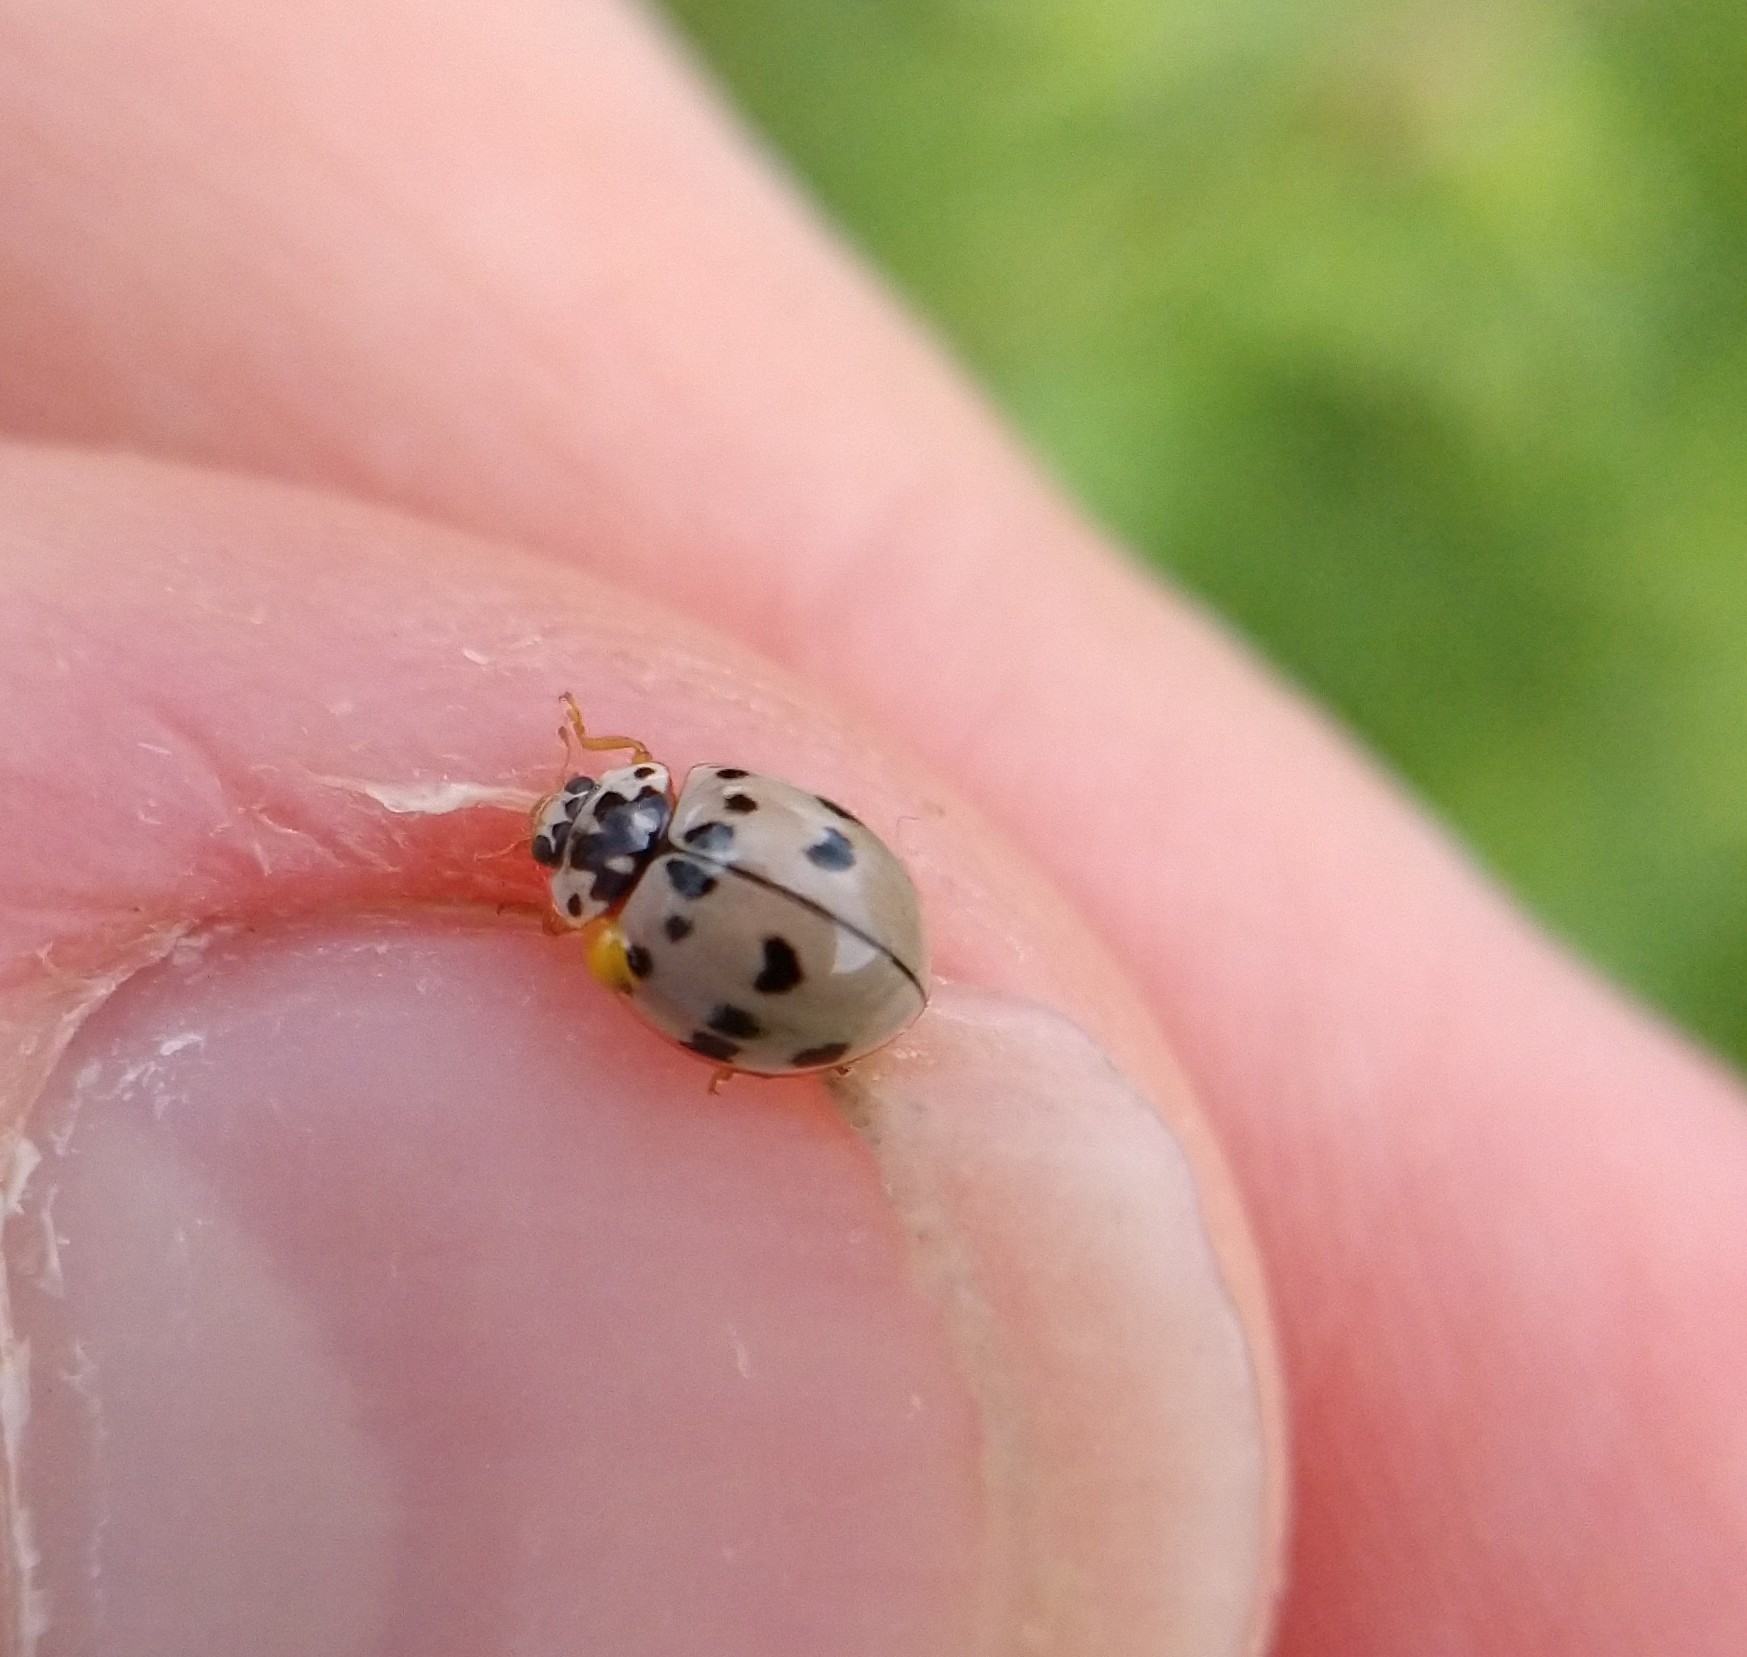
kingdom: Animalia
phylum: Arthropoda
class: Insecta
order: Coleoptera
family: Coccinellidae
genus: Olla
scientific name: Olla v-nigrum
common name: Ashy gray lady beetle
